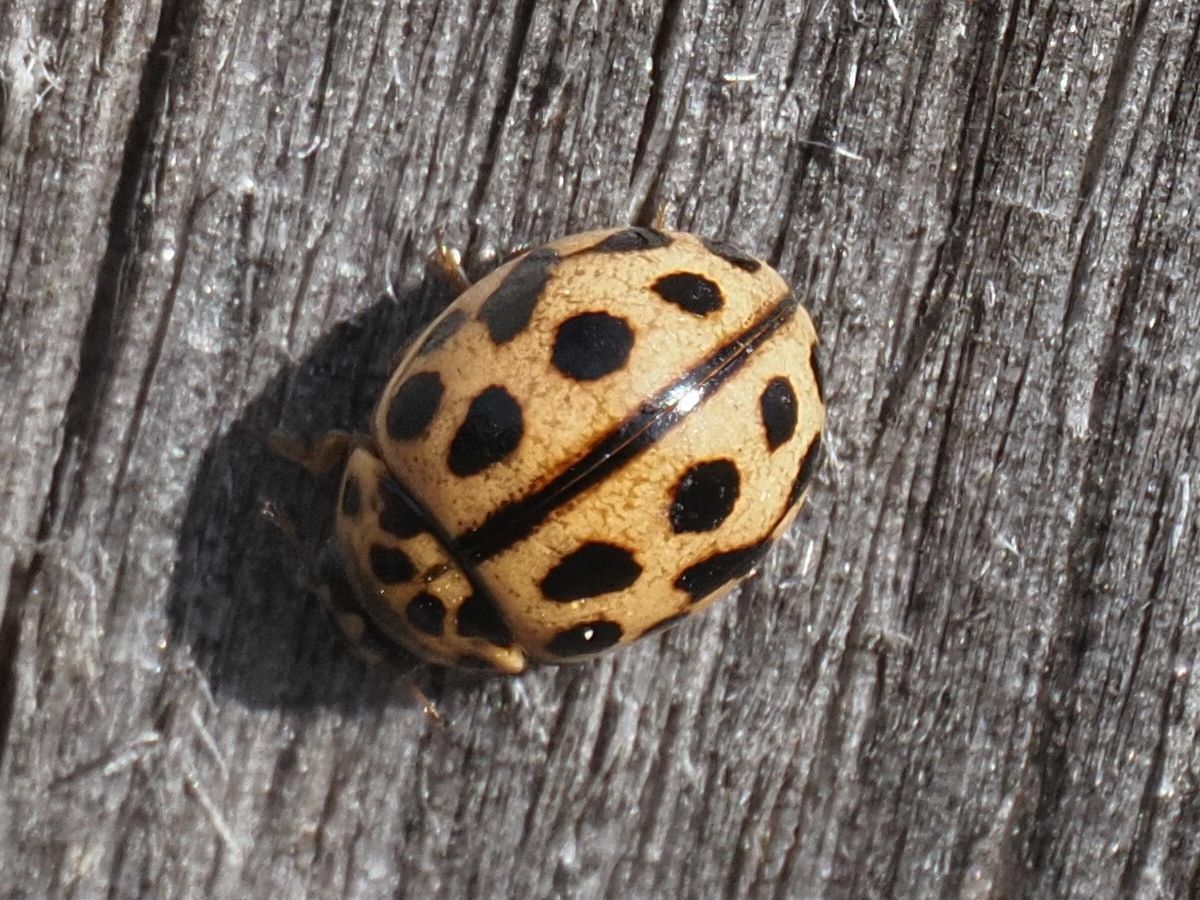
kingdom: Animalia
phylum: Arthropoda
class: Insecta
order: Coleoptera
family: Coccinellidae
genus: Tytthaspis
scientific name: Tytthaspis sedecimpunctata
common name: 16-spot ladybird
